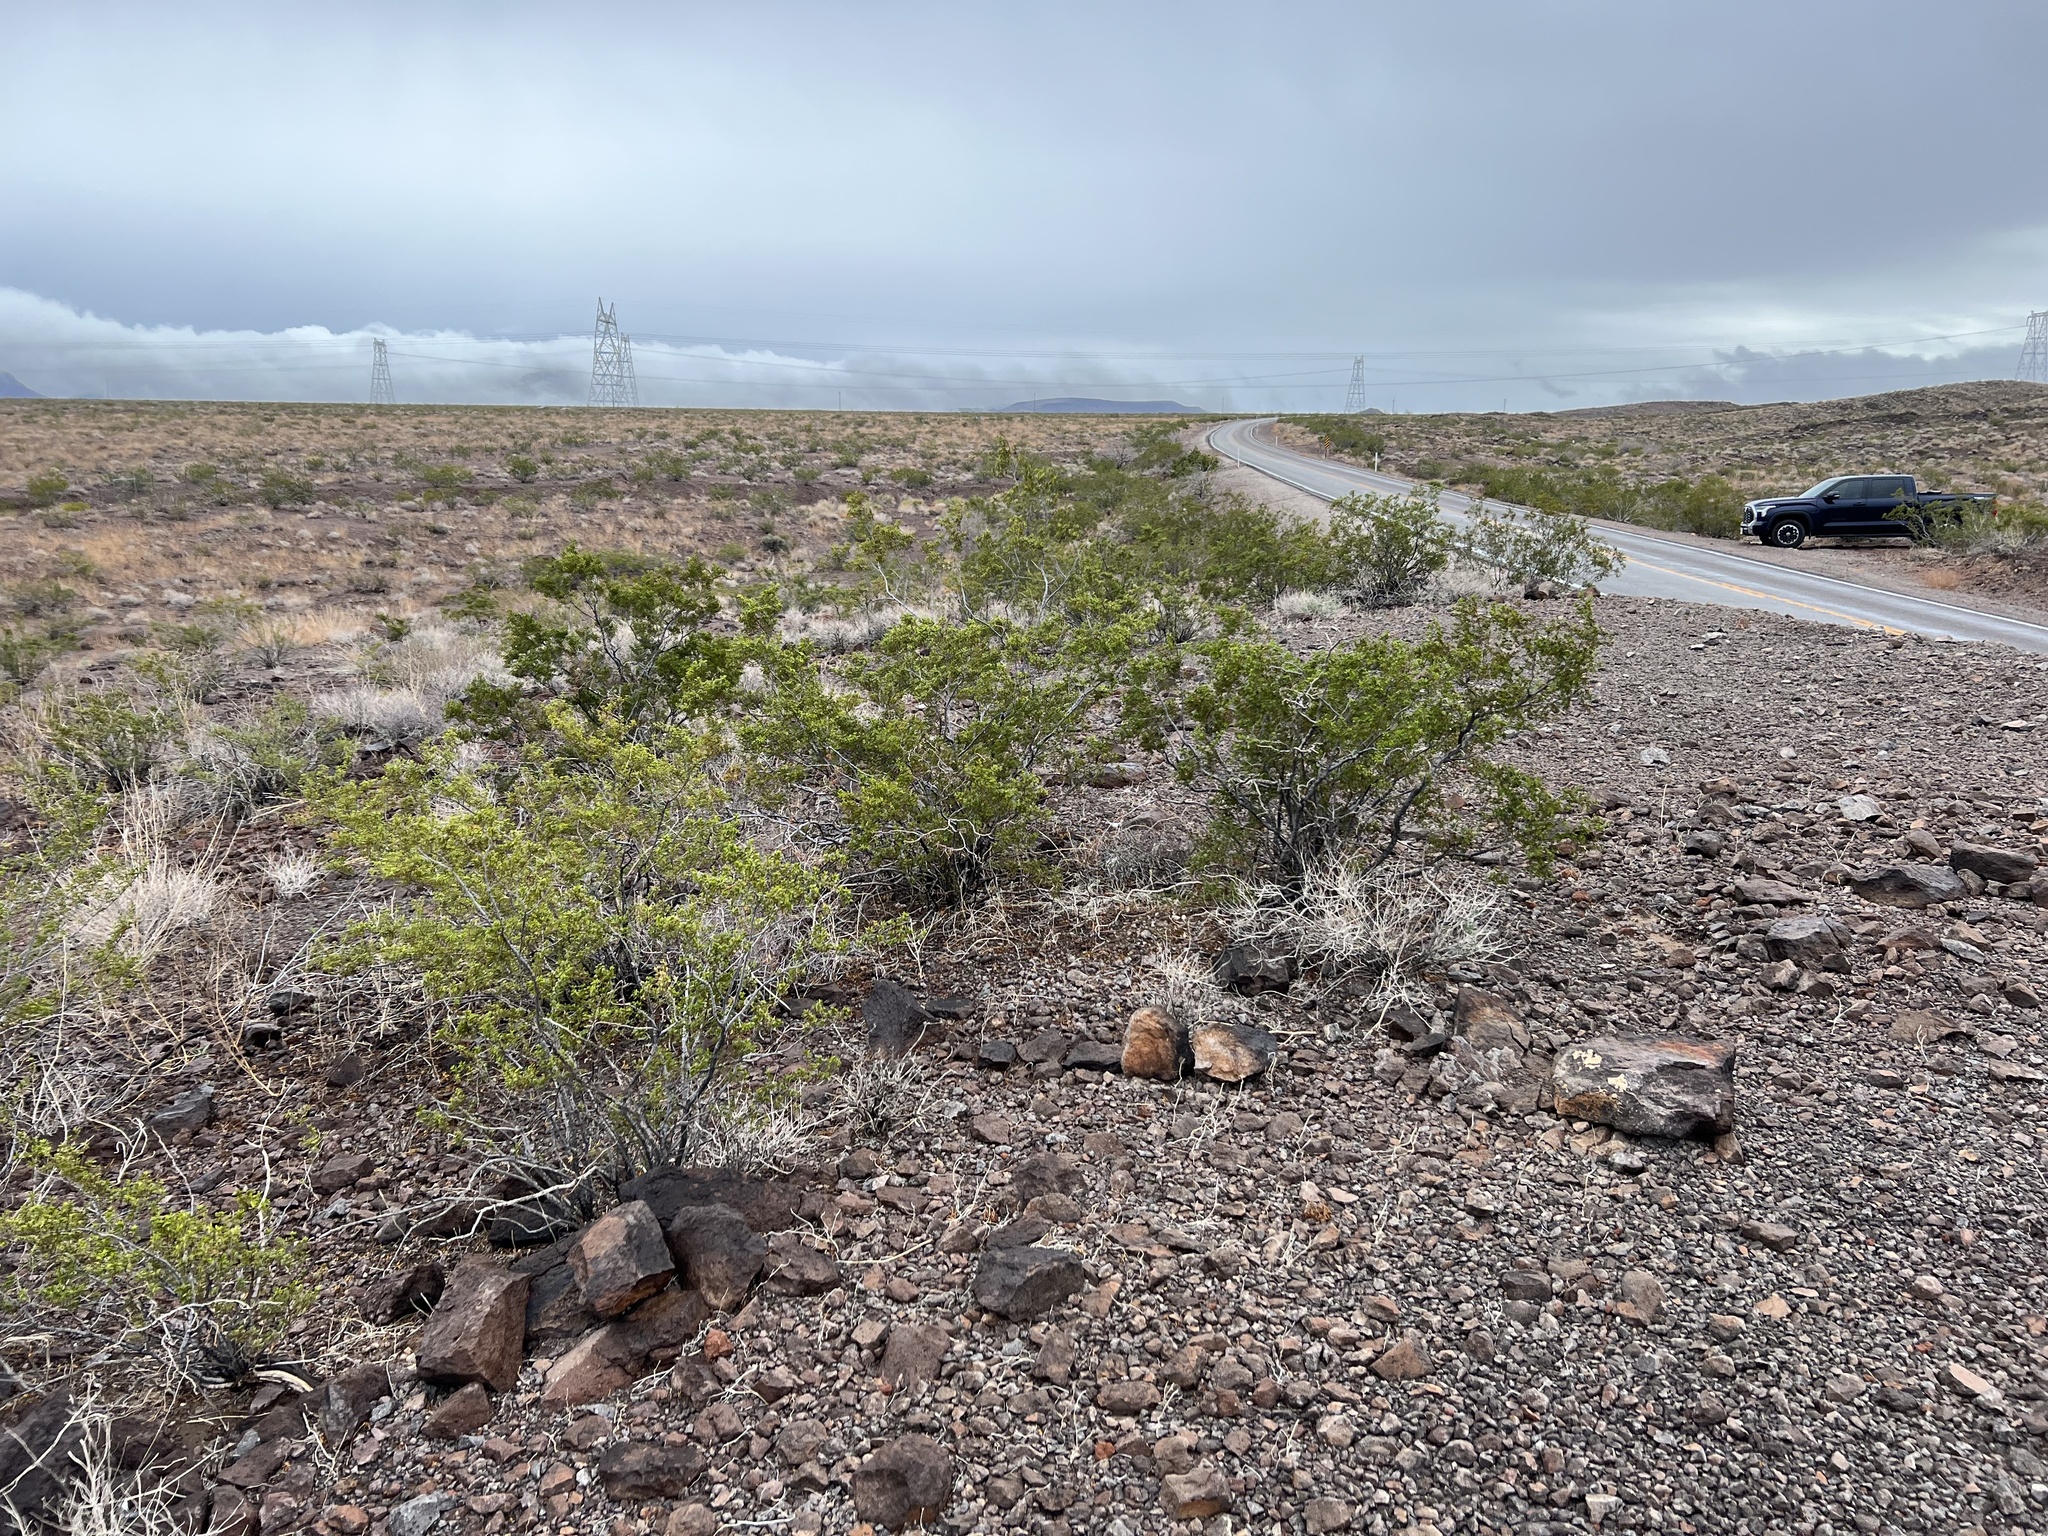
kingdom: Plantae
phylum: Tracheophyta
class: Magnoliopsida
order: Zygophyllales
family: Zygophyllaceae
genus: Larrea
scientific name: Larrea tridentata
